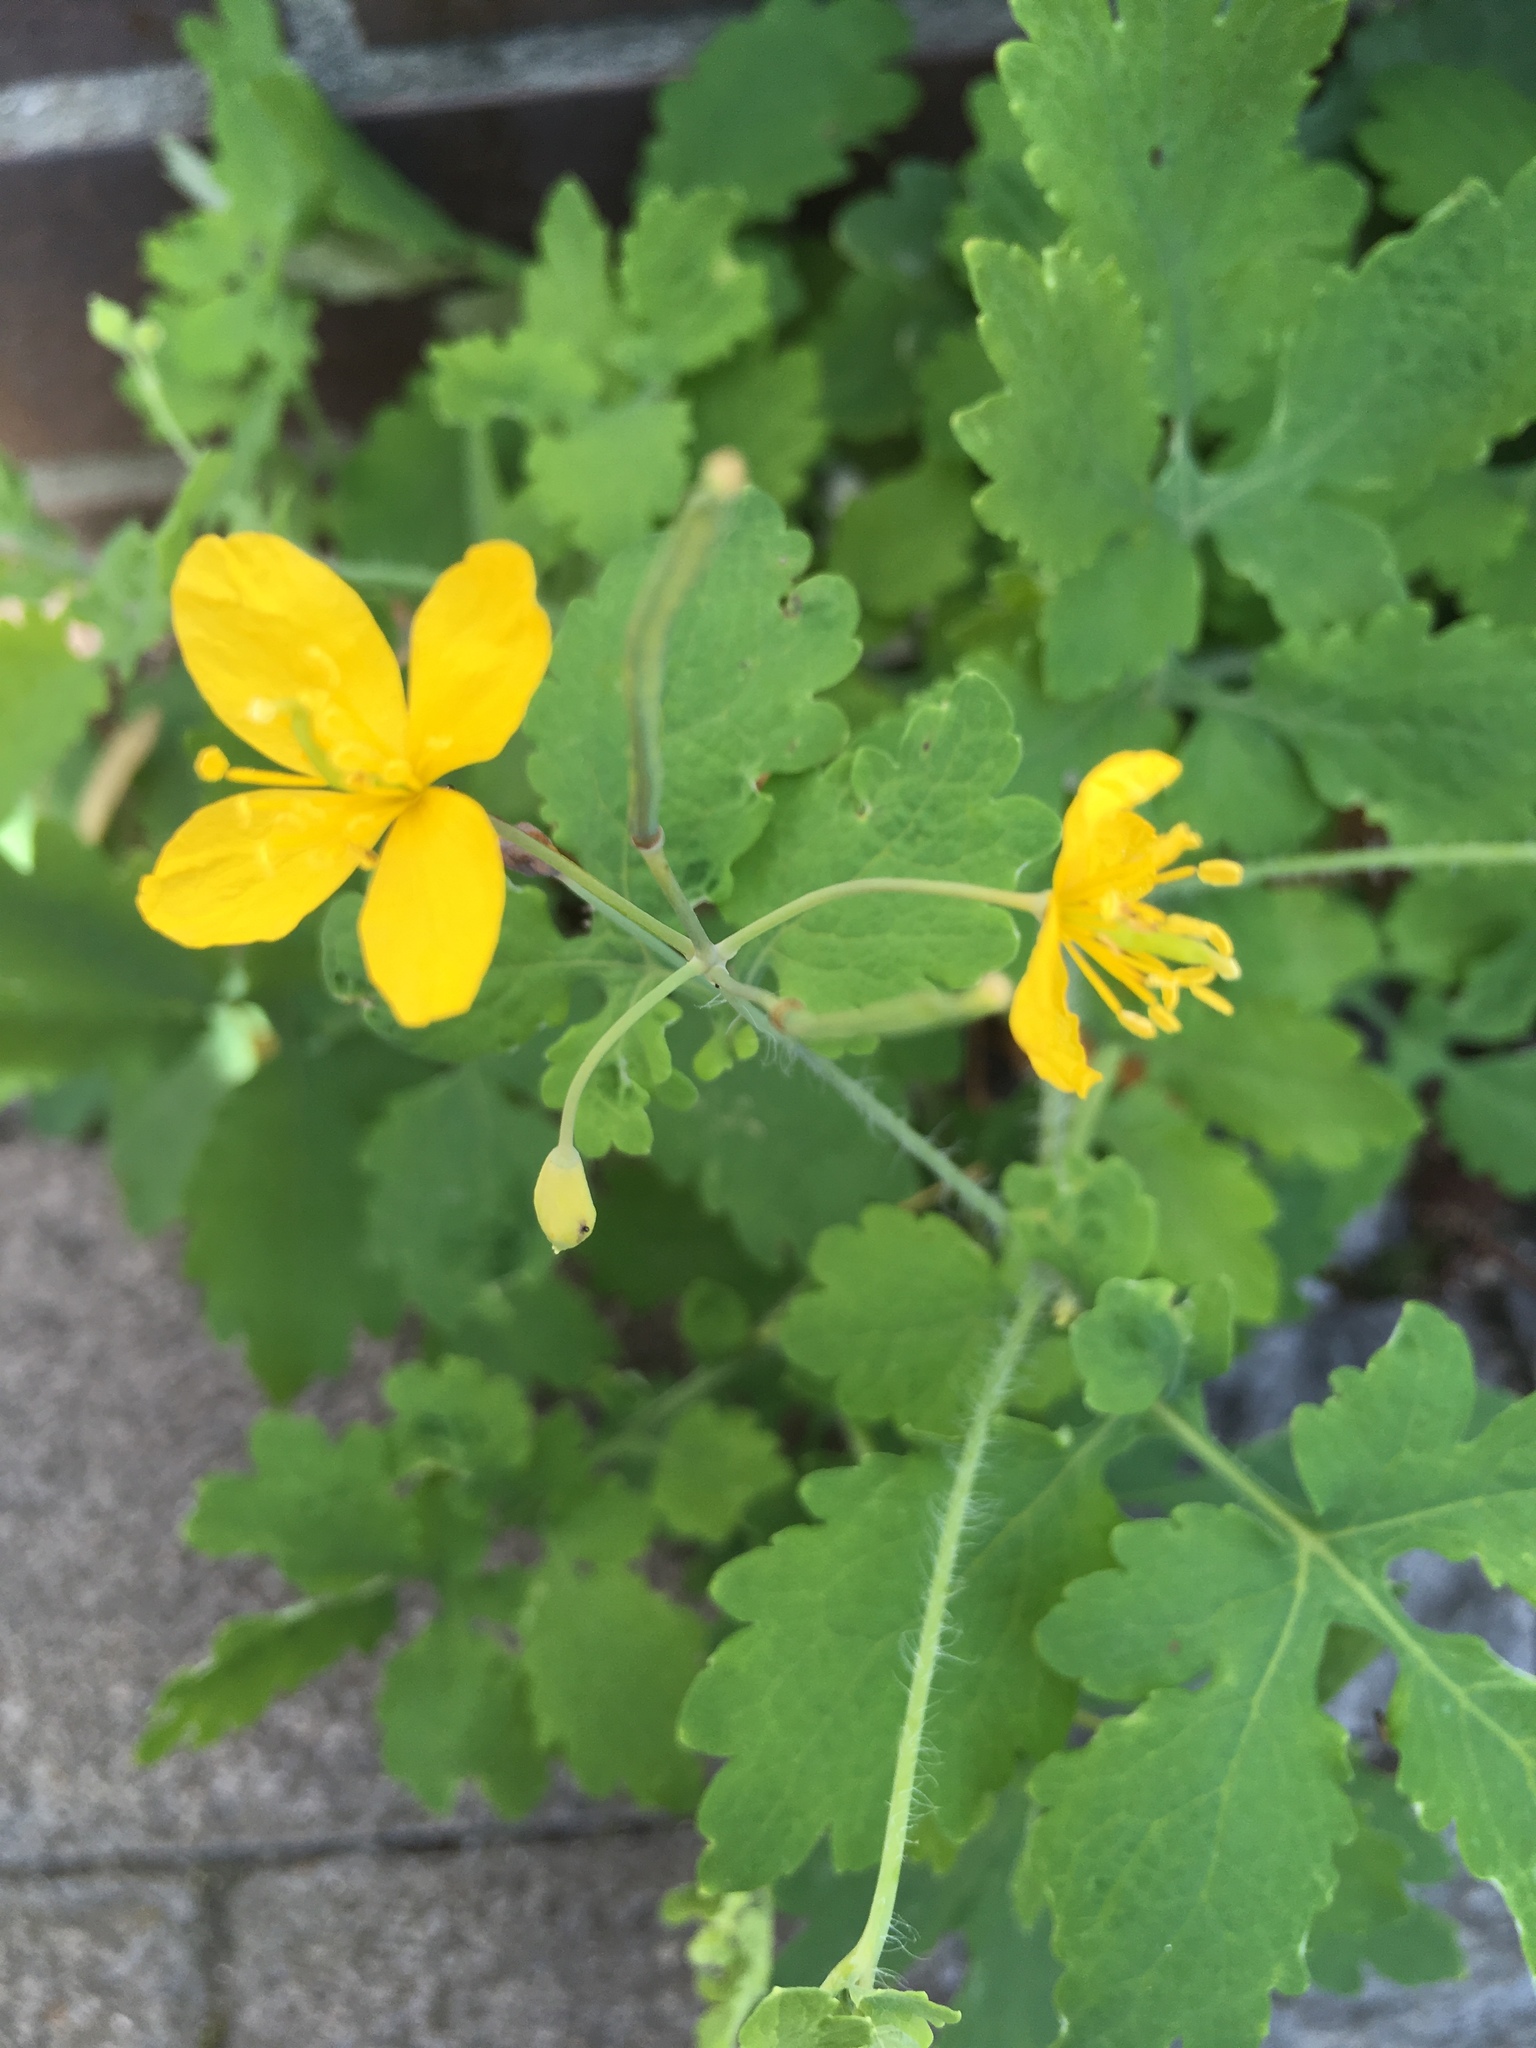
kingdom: Plantae
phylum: Tracheophyta
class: Magnoliopsida
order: Ranunculales
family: Papaveraceae
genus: Chelidonium
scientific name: Chelidonium majus
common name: Greater celandine
